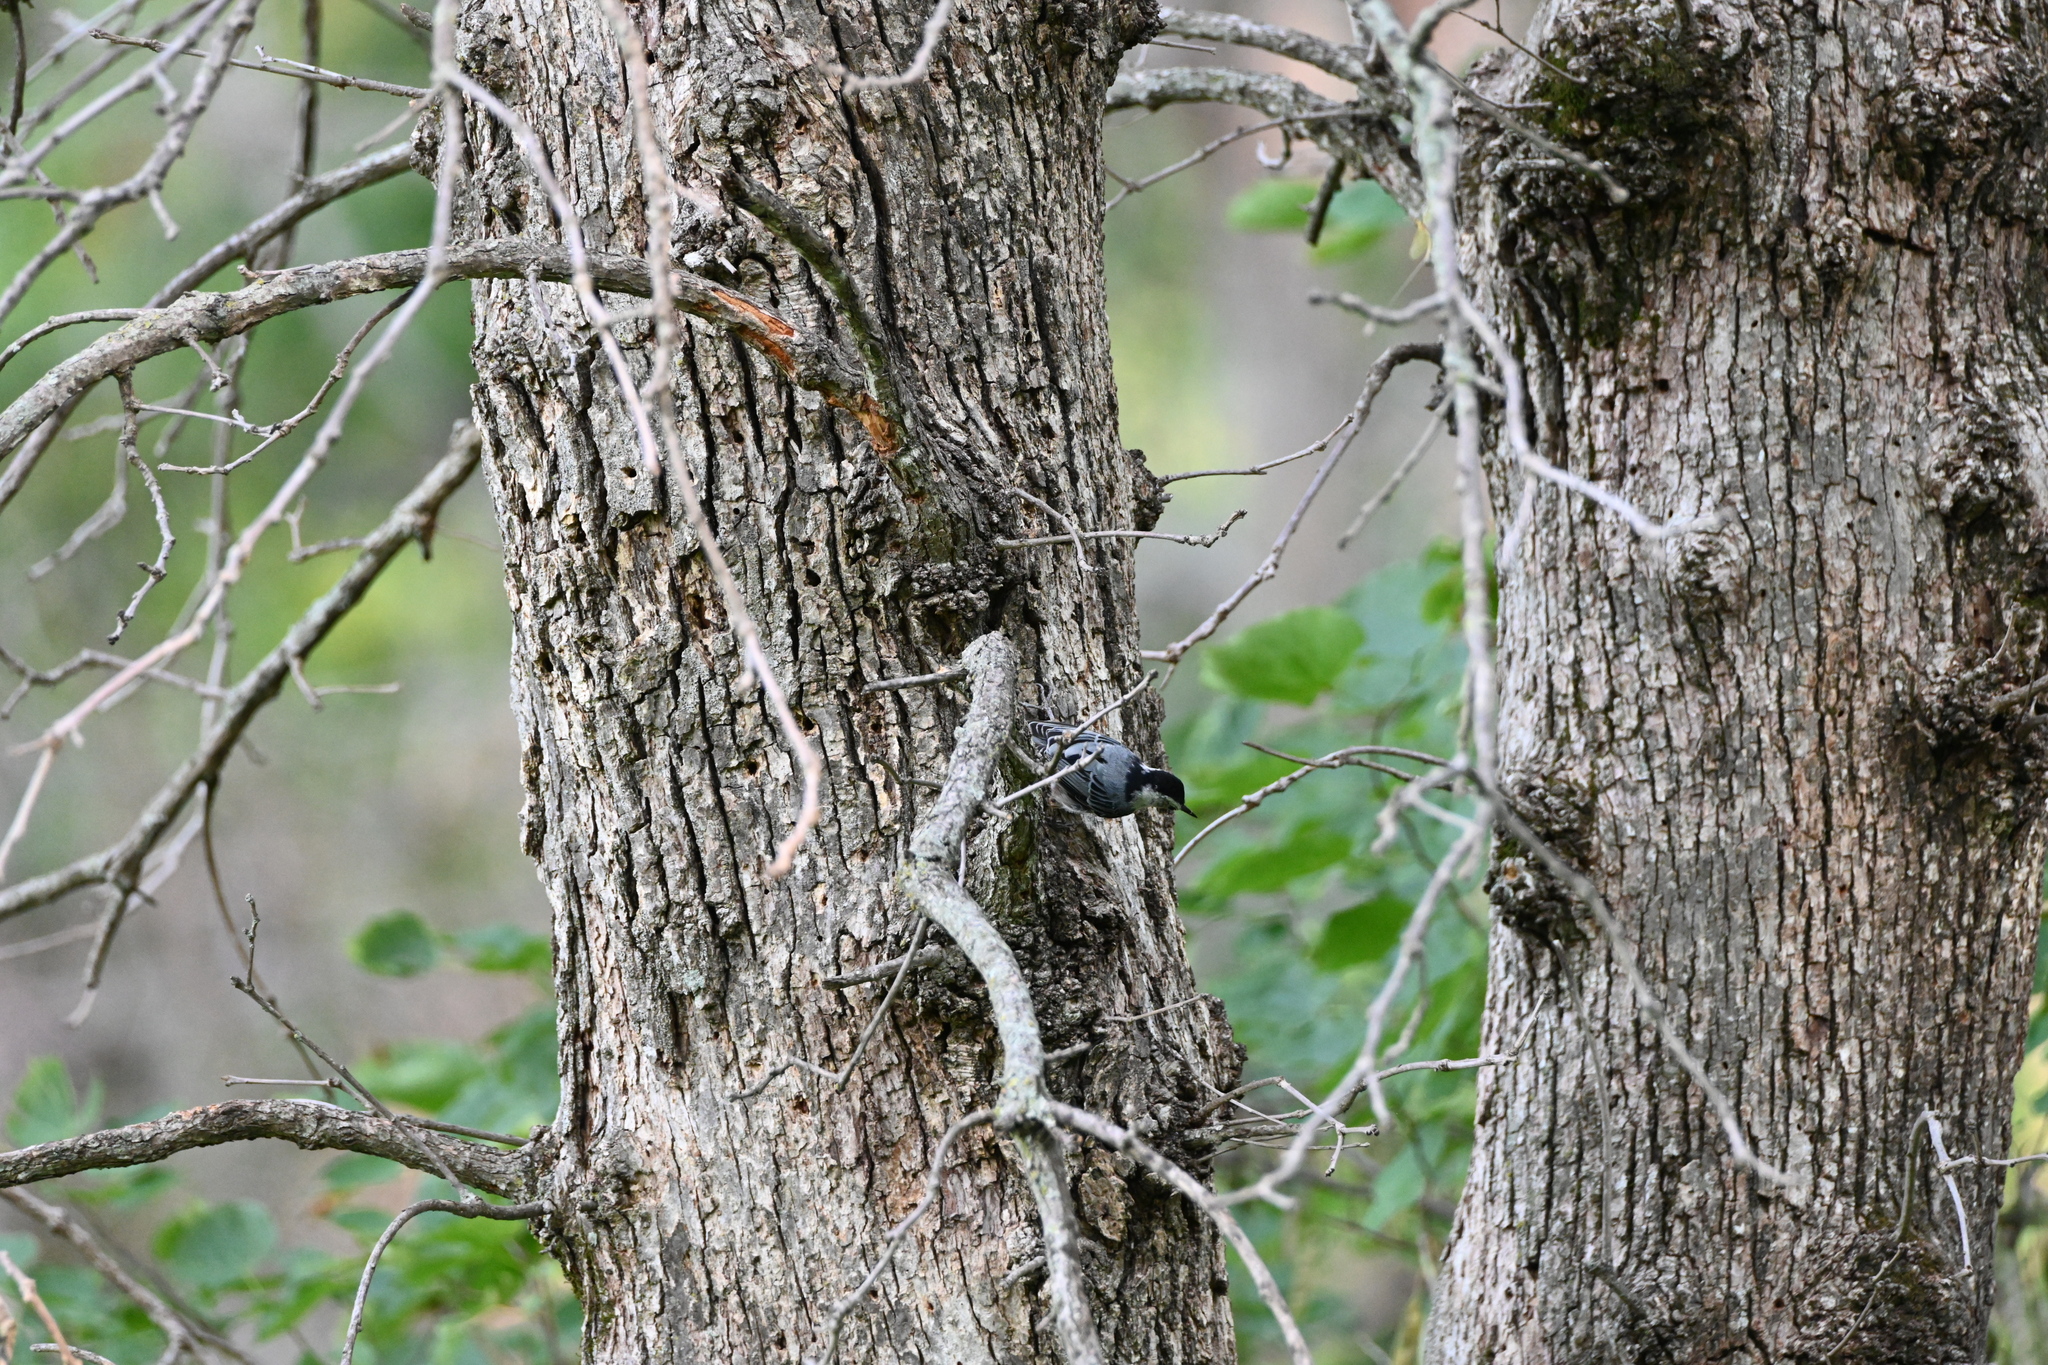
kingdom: Animalia
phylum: Chordata
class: Aves
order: Passeriformes
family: Sittidae
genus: Sitta
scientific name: Sitta carolinensis
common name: White-breasted nuthatch
